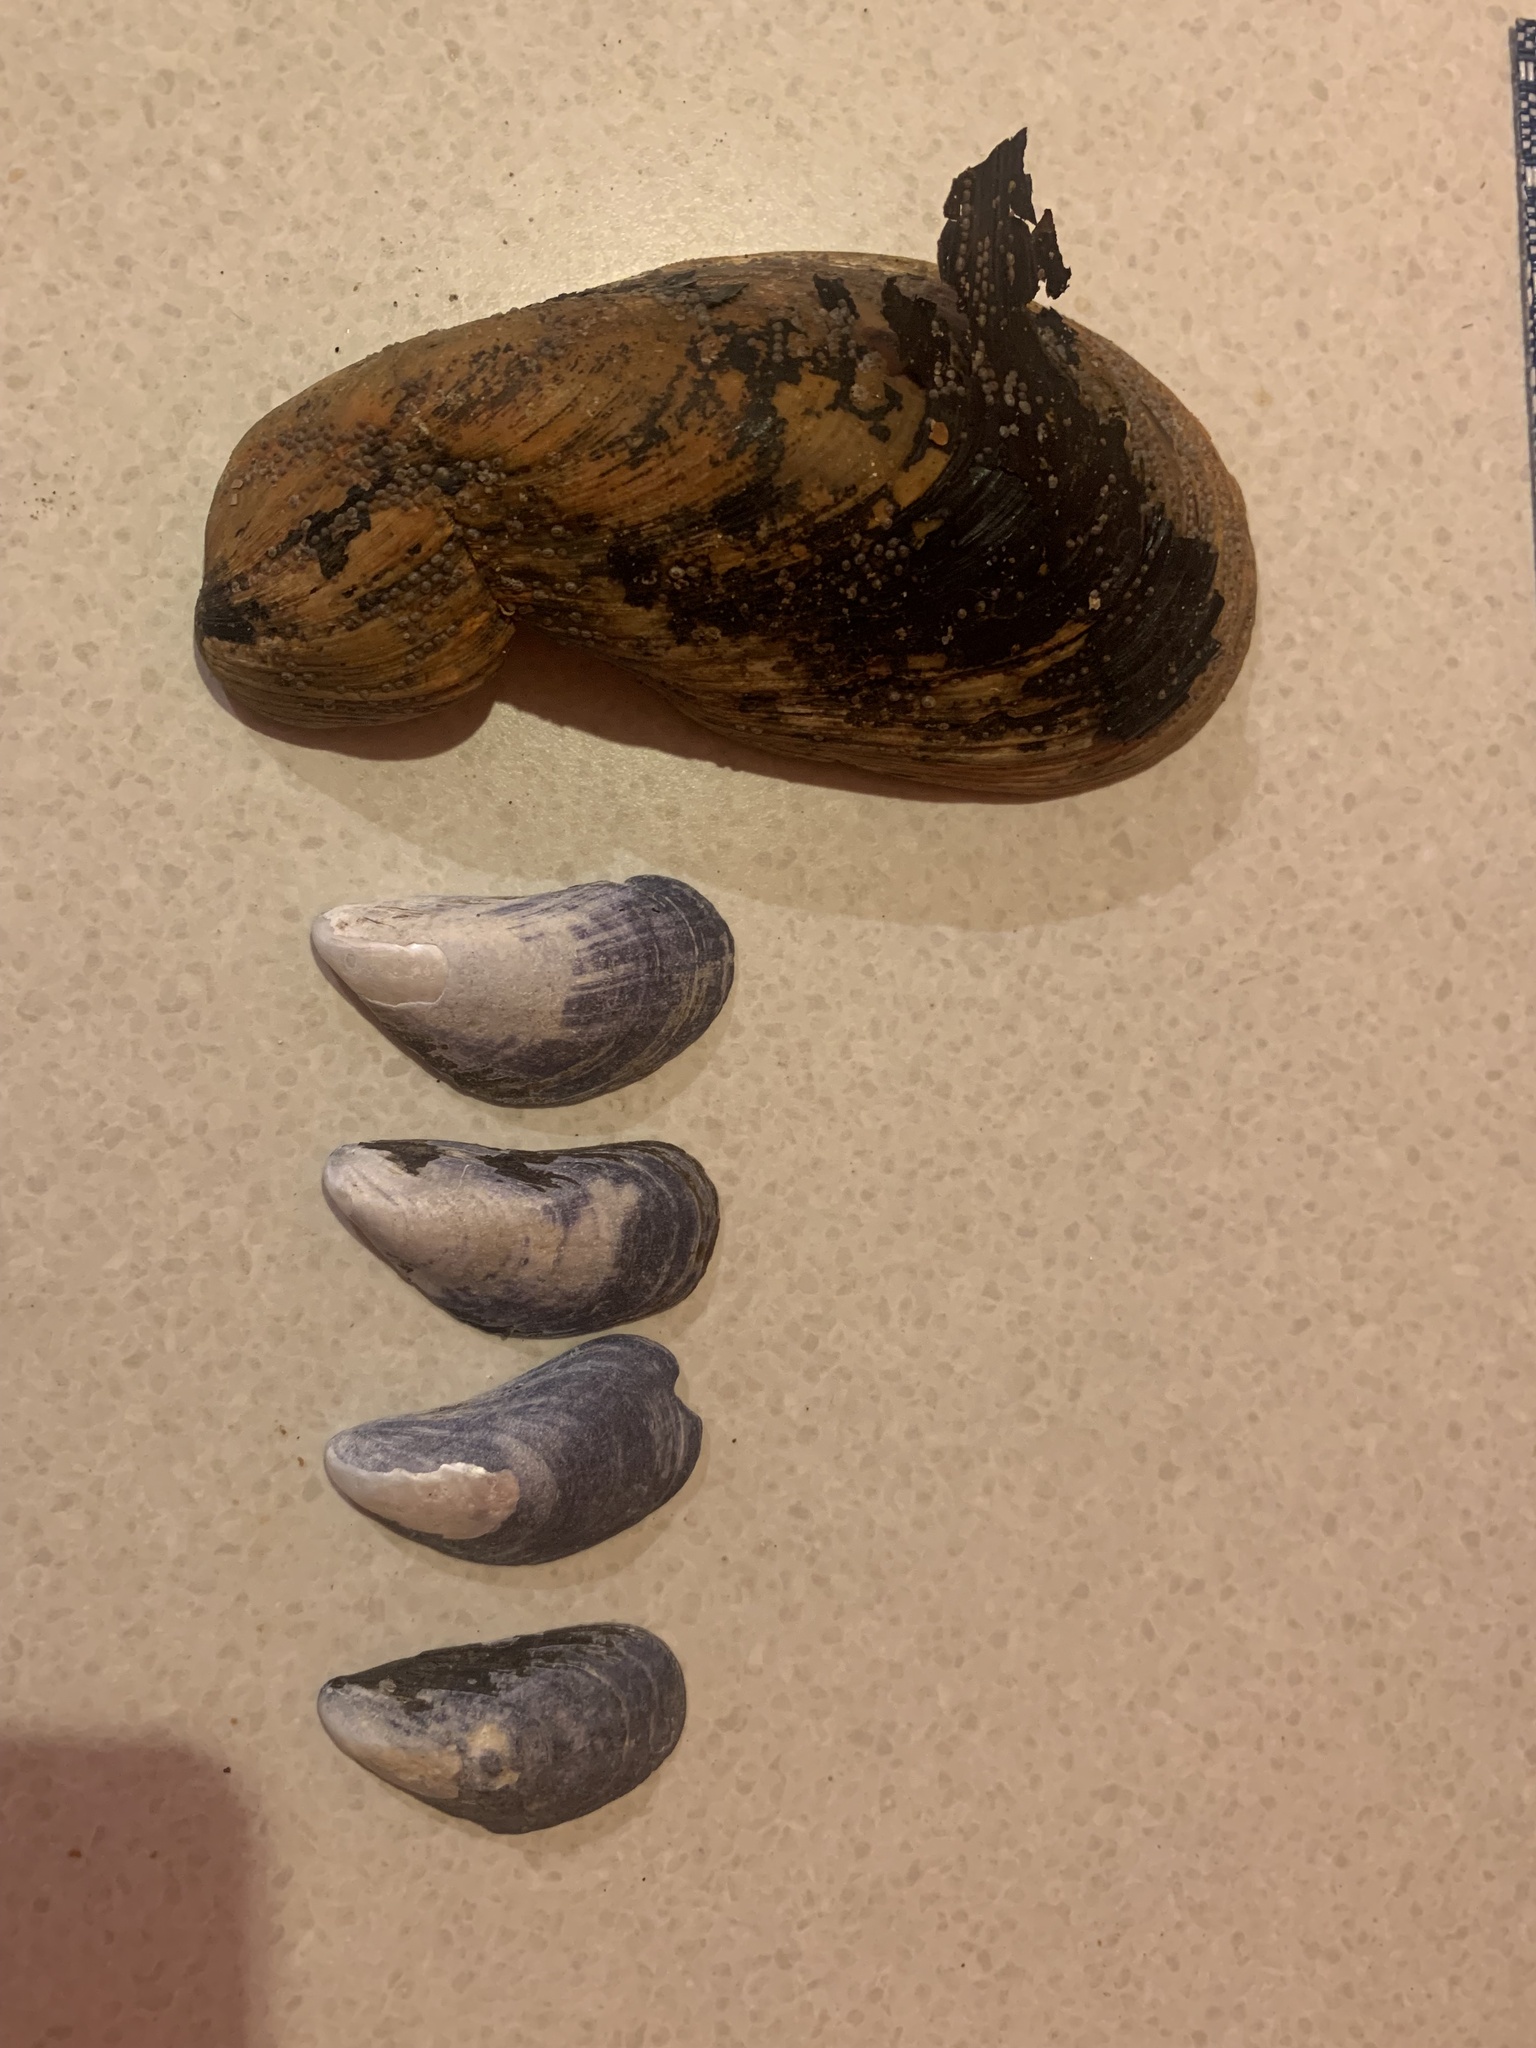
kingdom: Animalia
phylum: Mollusca
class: Bivalvia
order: Mytilida
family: Mytilidae
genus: Modiolus
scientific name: Modiolus modiolus
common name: Horse-mussel
